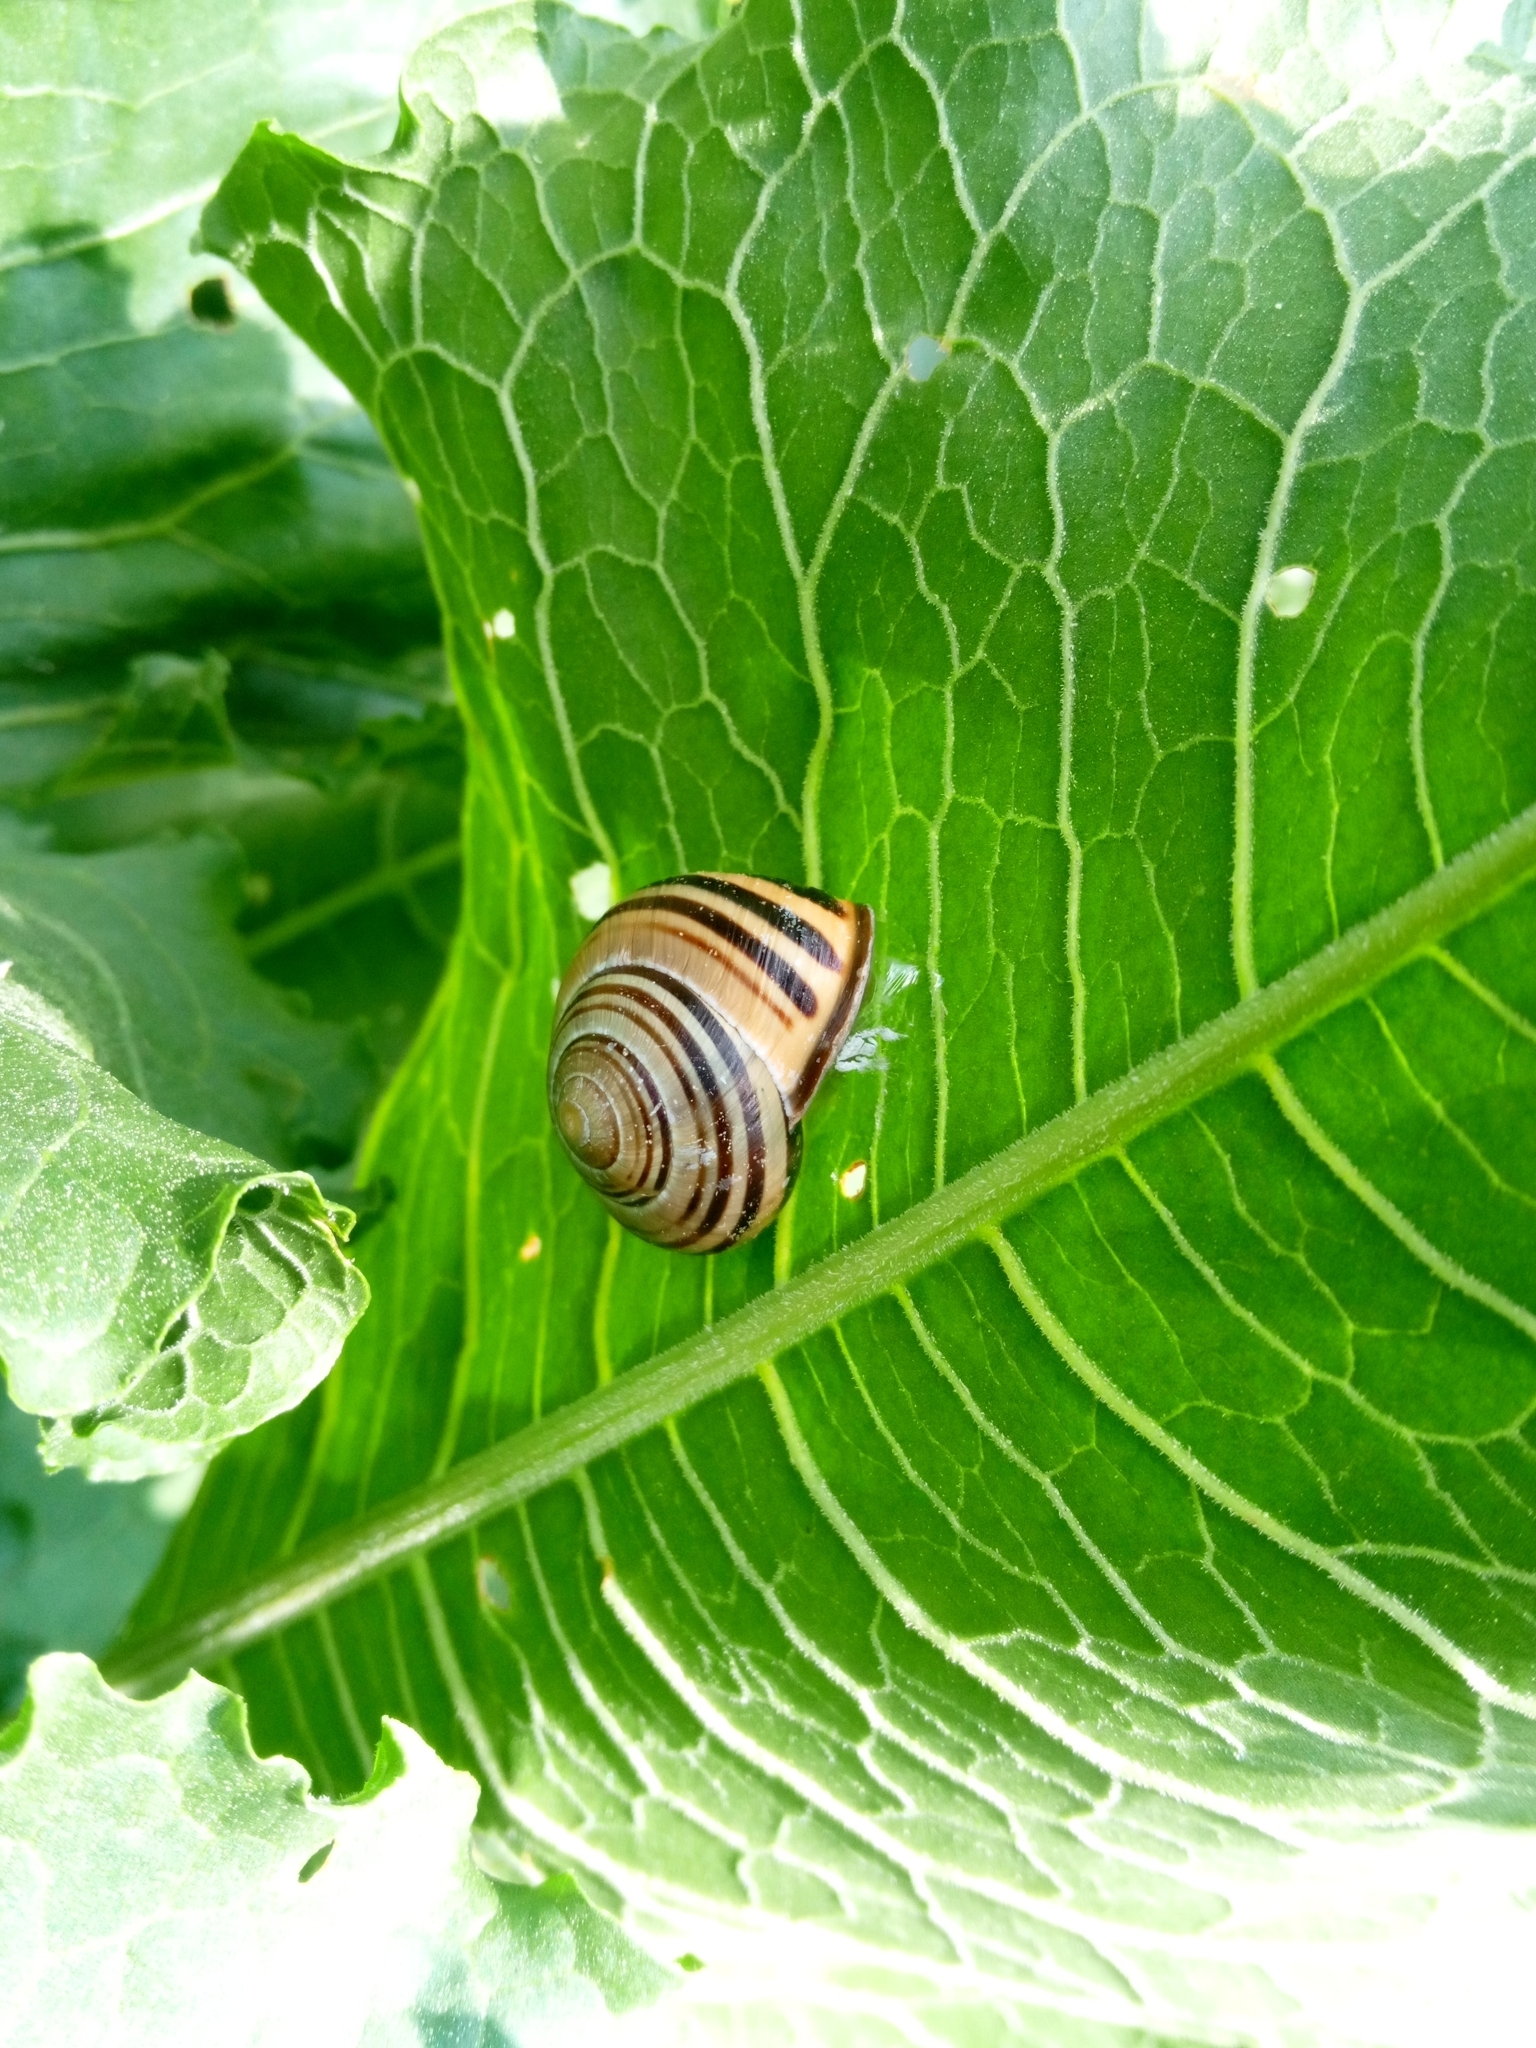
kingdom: Animalia
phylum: Mollusca
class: Gastropoda
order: Stylommatophora
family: Helicidae
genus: Cepaea
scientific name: Cepaea nemoralis
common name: Grovesnail
